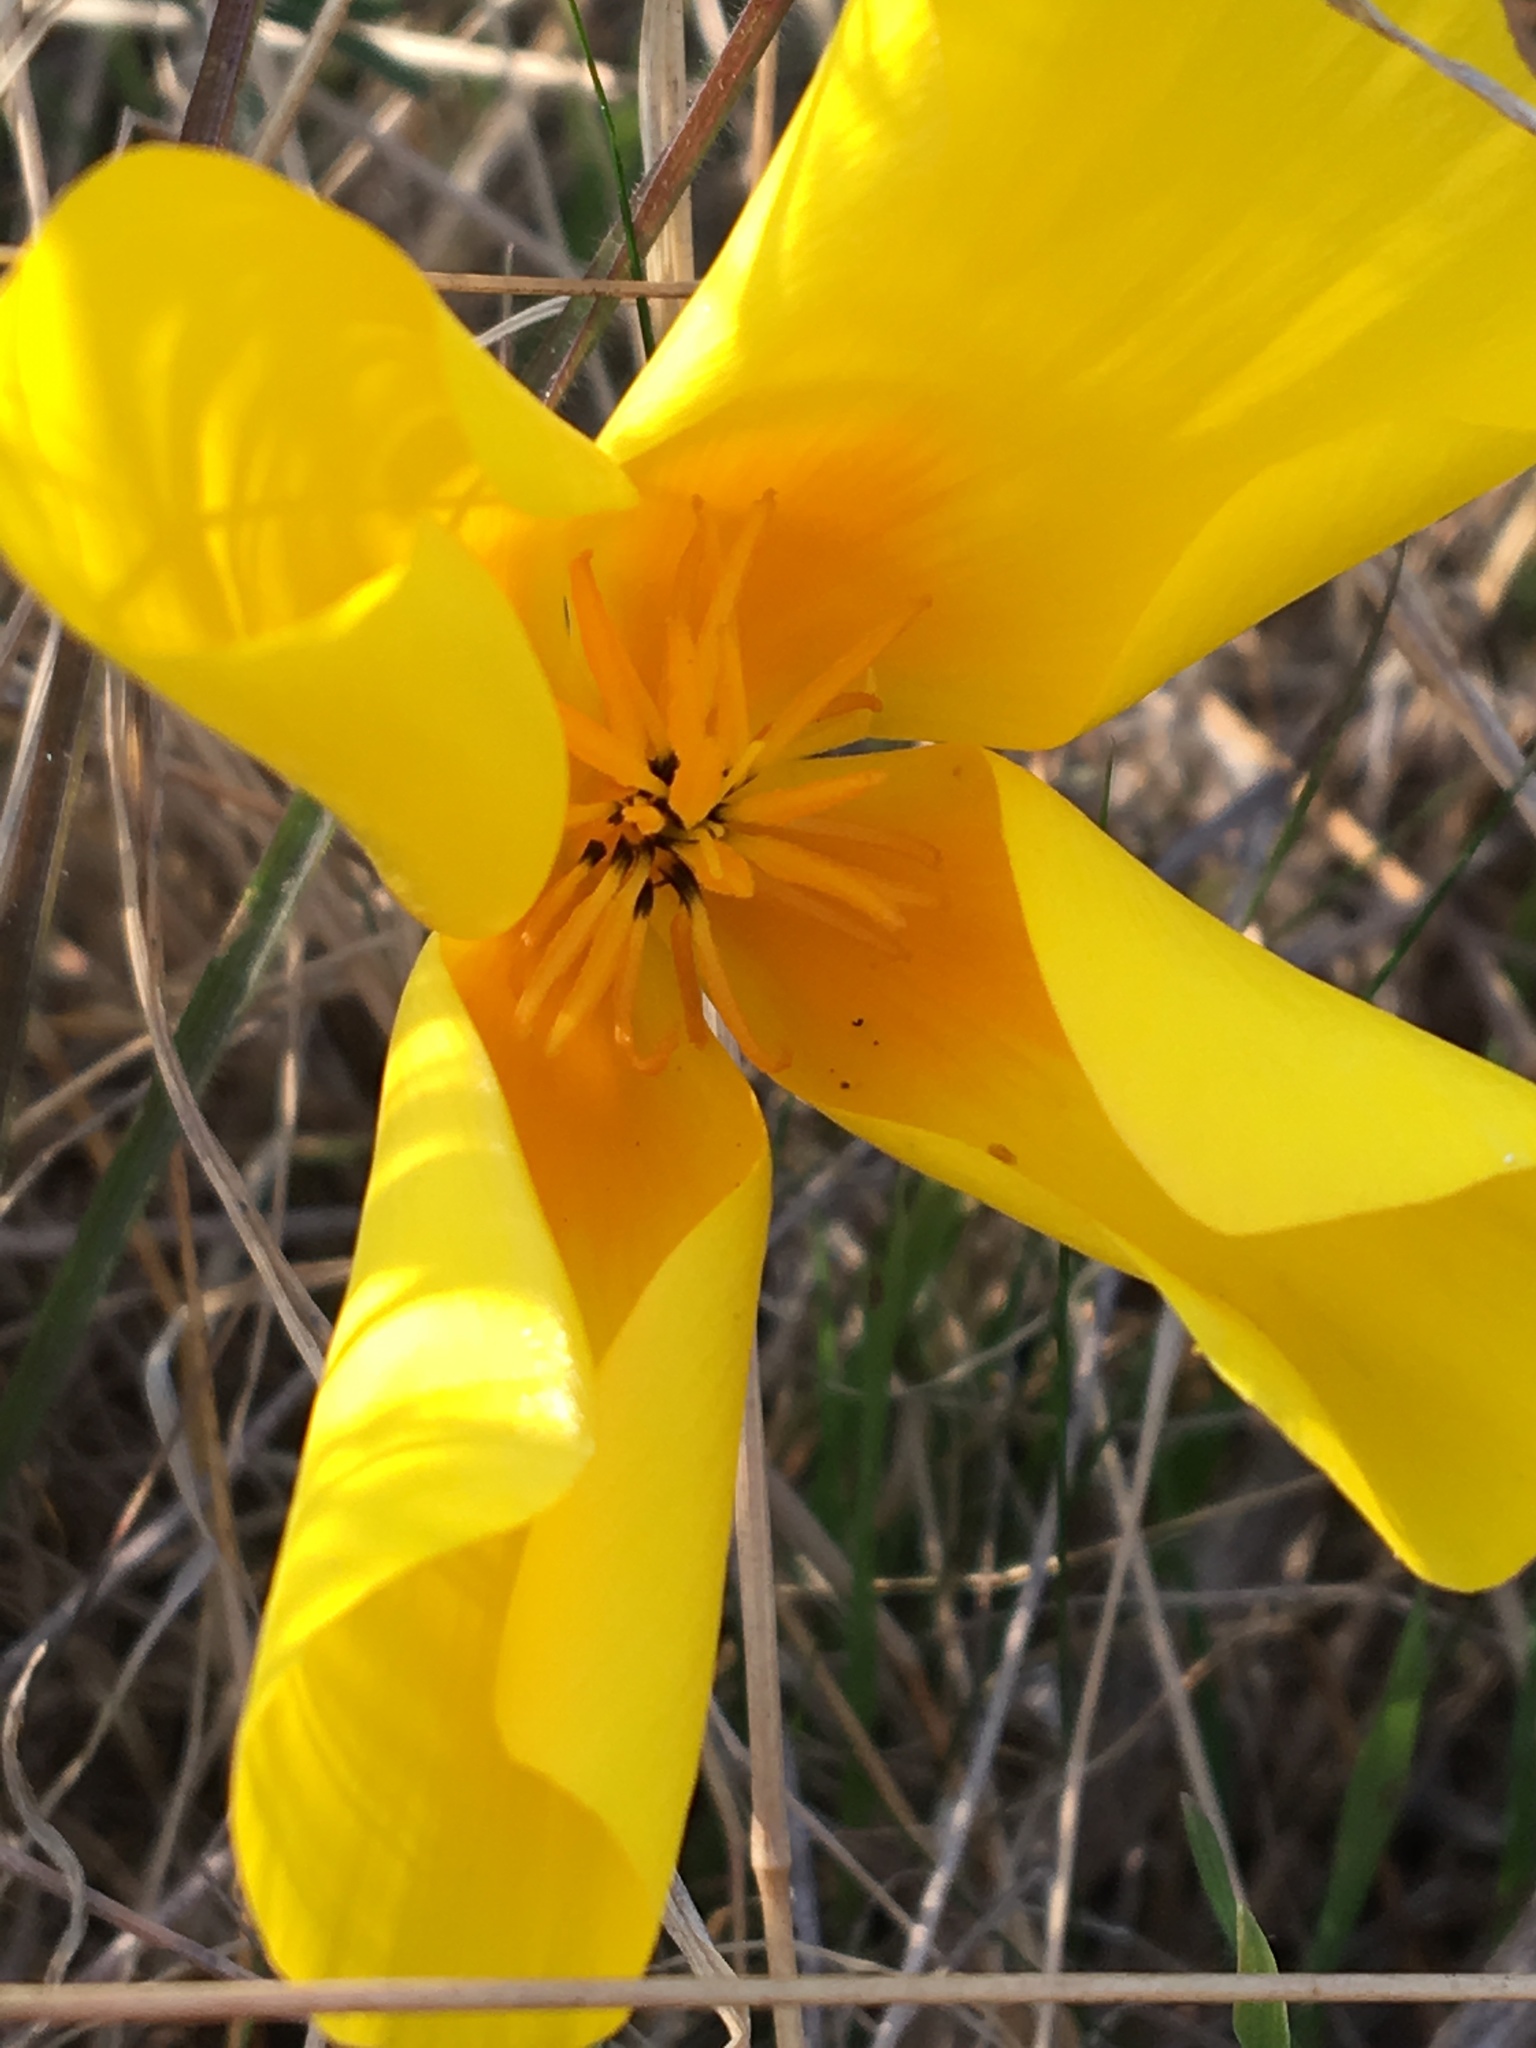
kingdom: Plantae
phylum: Tracheophyta
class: Magnoliopsida
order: Ranunculales
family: Papaveraceae
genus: Eschscholzia
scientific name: Eschscholzia californica
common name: California poppy
